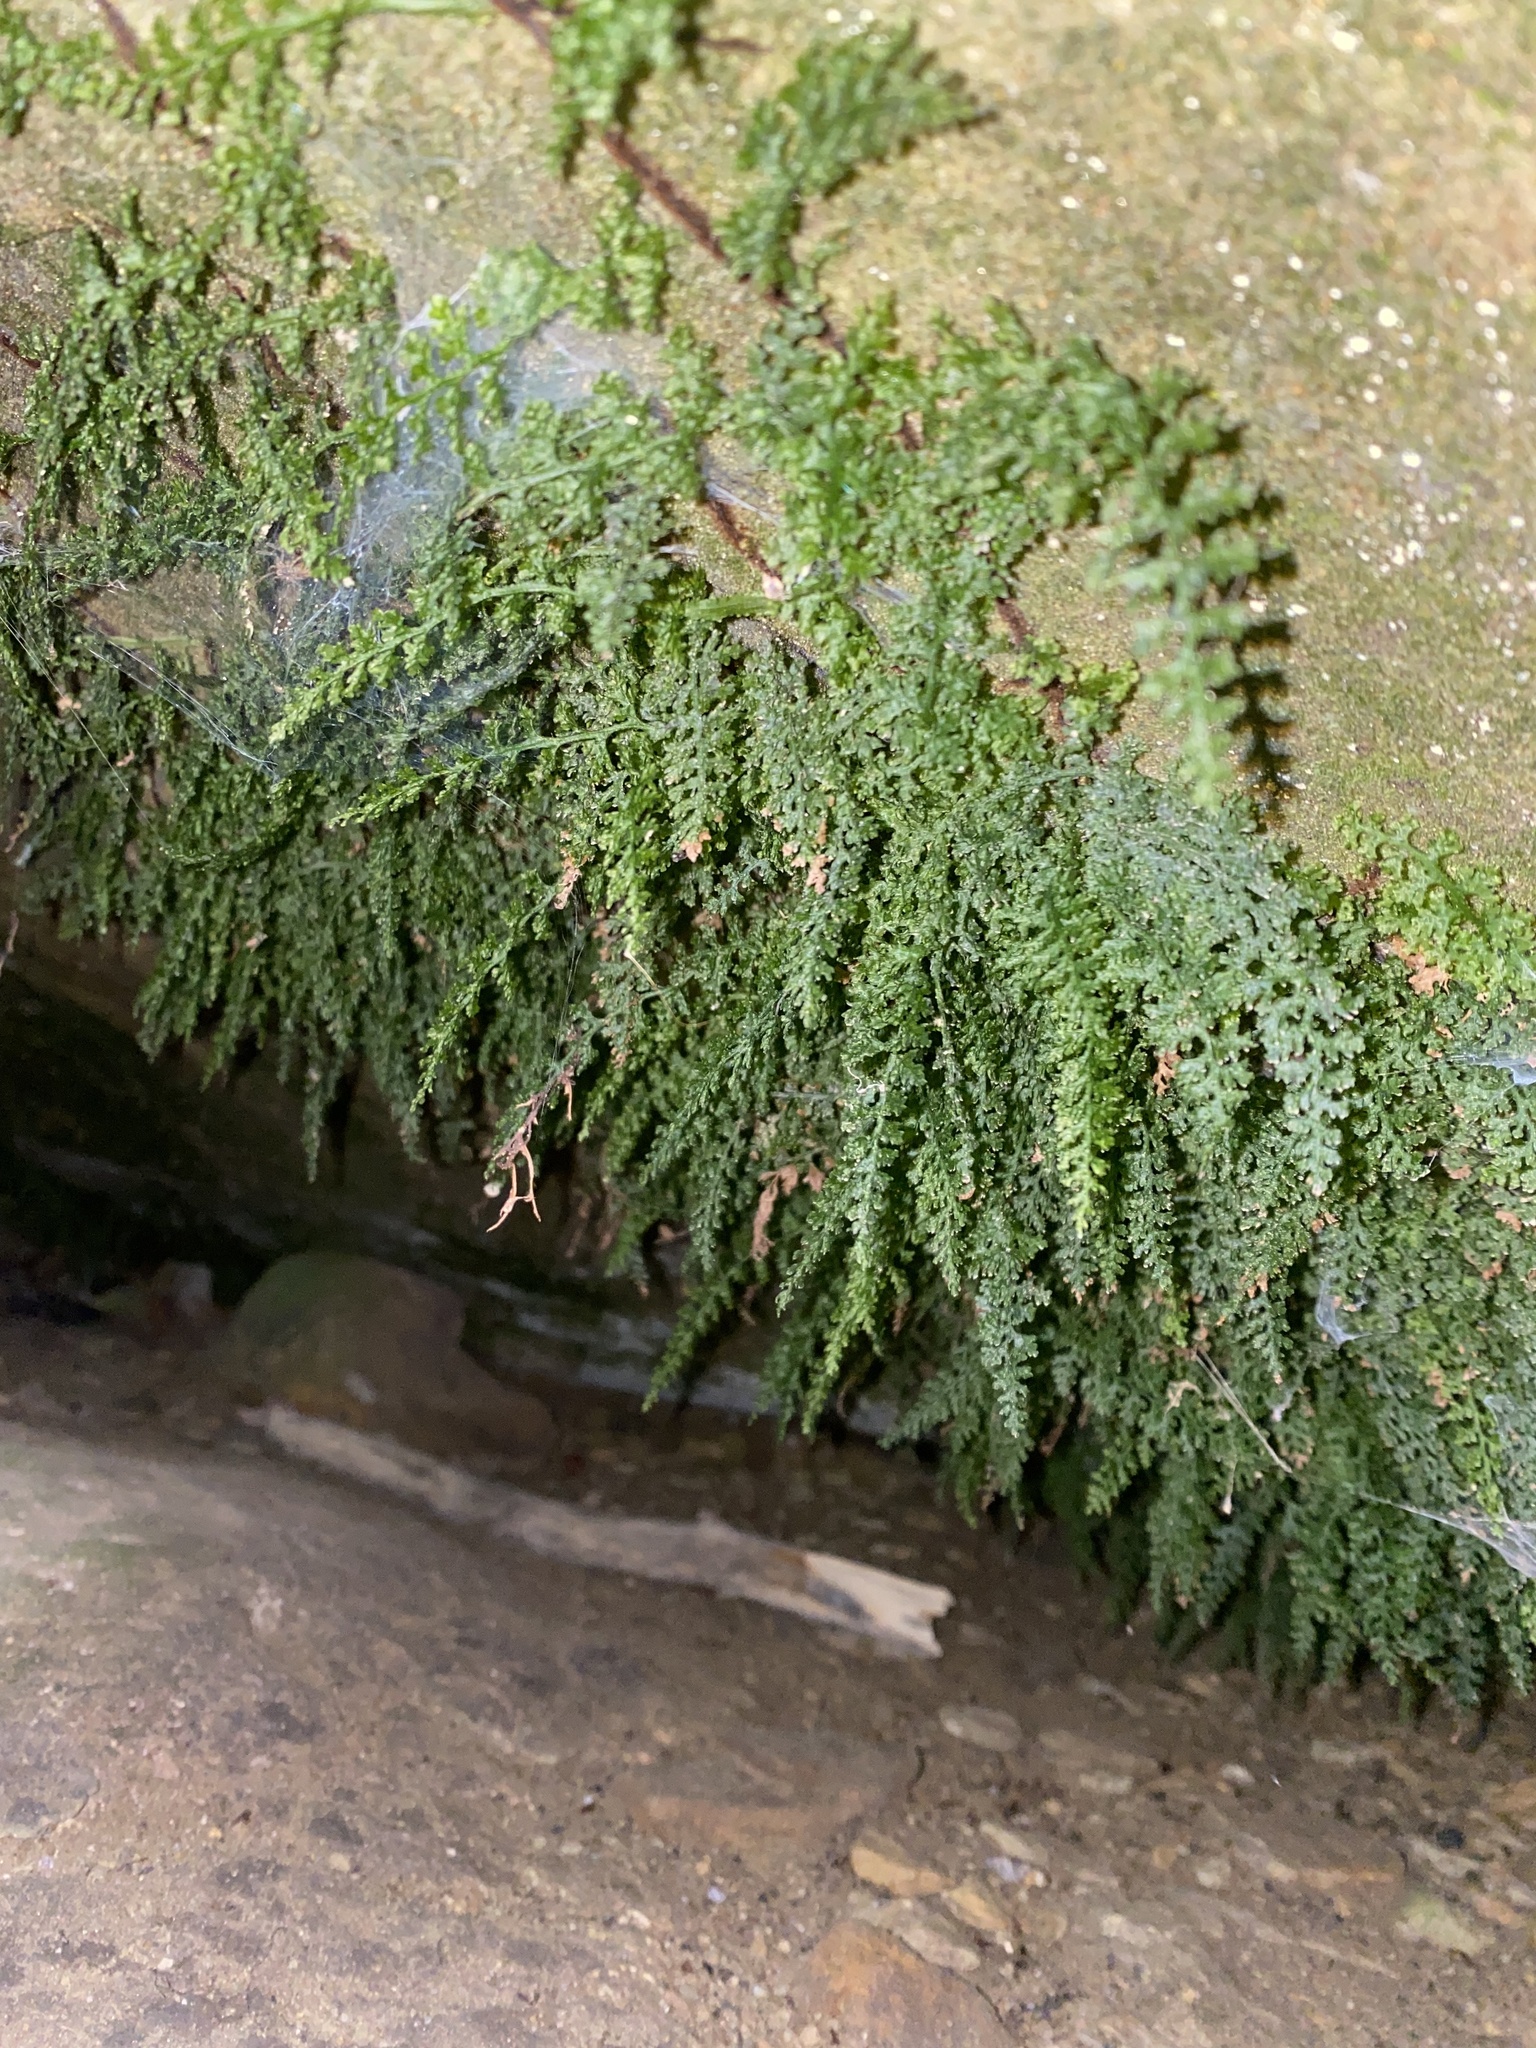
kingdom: Plantae
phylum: Tracheophyta
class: Polypodiopsida
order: Hymenophyllales
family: Hymenophyllaceae
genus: Vandenboschia
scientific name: Vandenboschia boschiana
